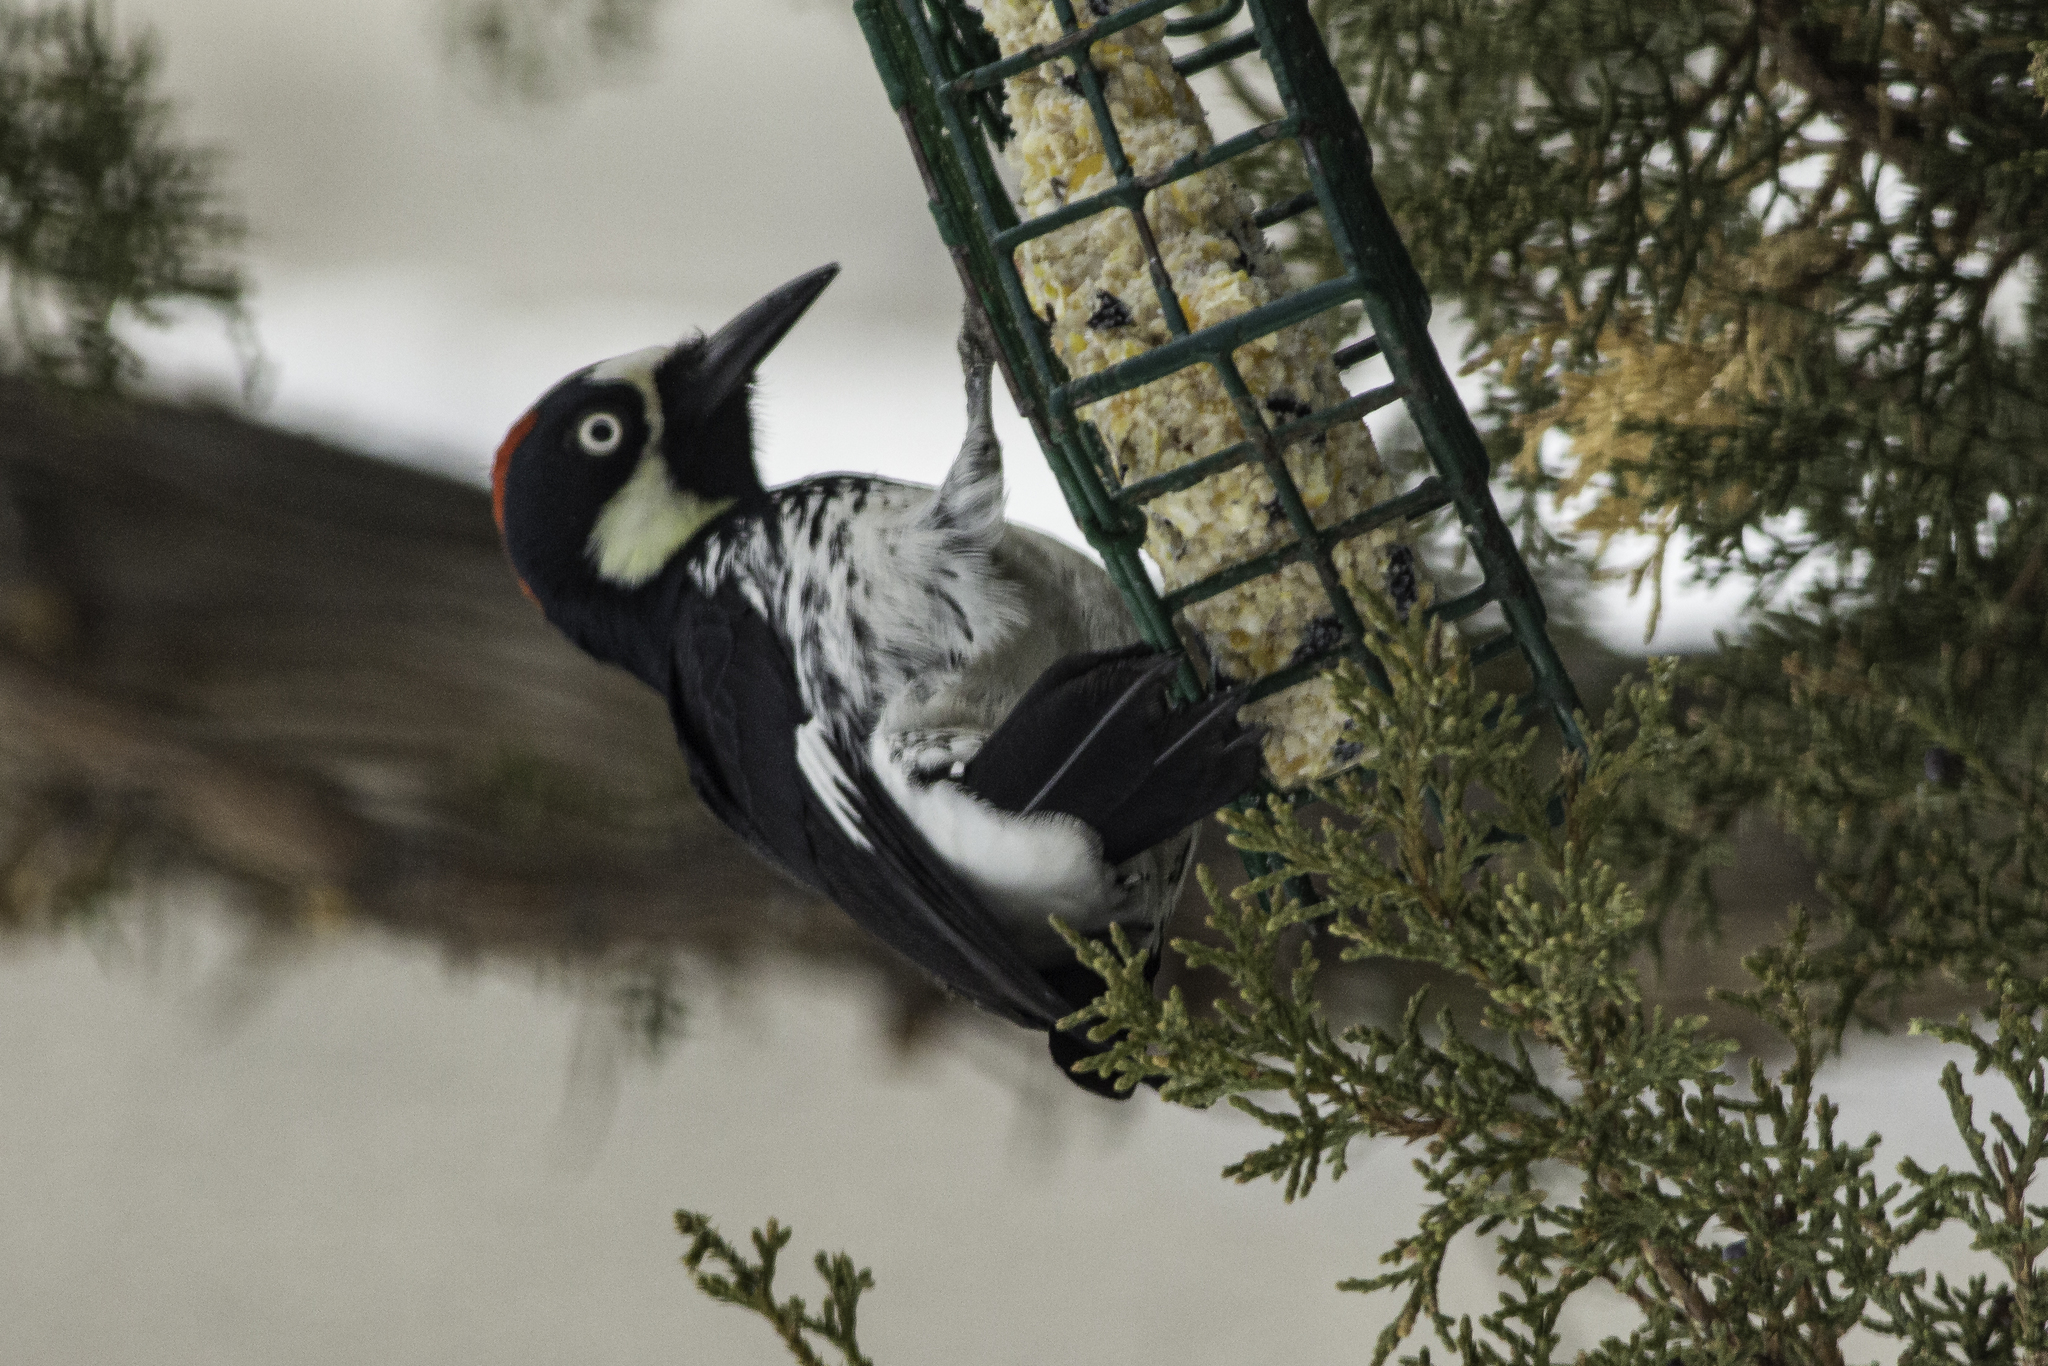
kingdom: Animalia
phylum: Chordata
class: Aves
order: Piciformes
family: Picidae
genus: Melanerpes
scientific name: Melanerpes formicivorus
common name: Acorn woodpecker
